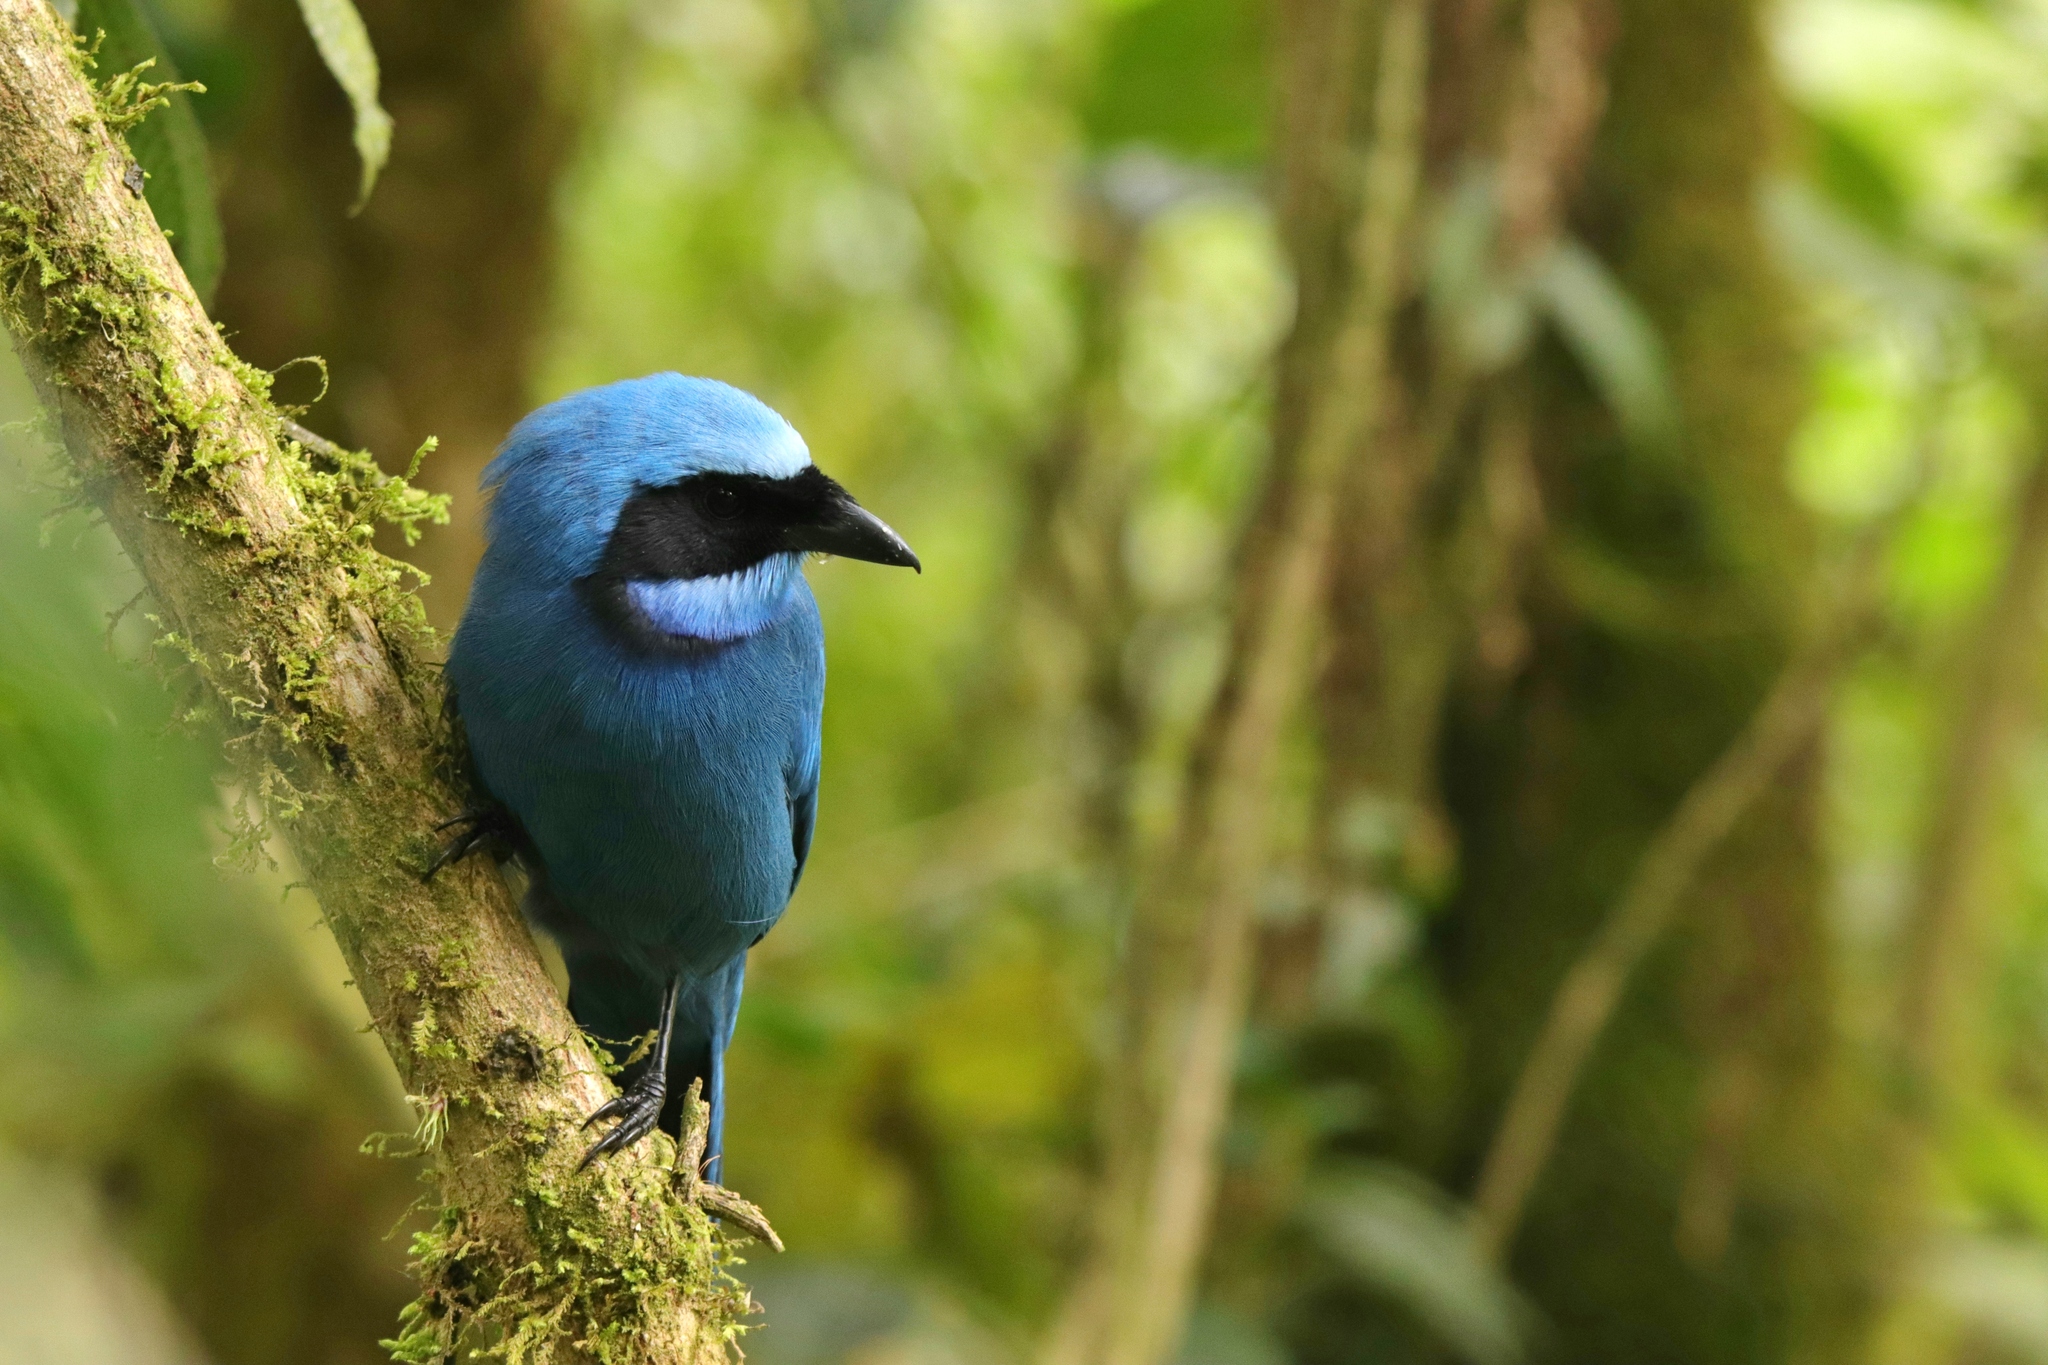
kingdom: Animalia
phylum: Chordata
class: Aves
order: Passeriformes
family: Corvidae
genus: Cyanolyca
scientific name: Cyanolyca turcosa
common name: Turquoise jay
